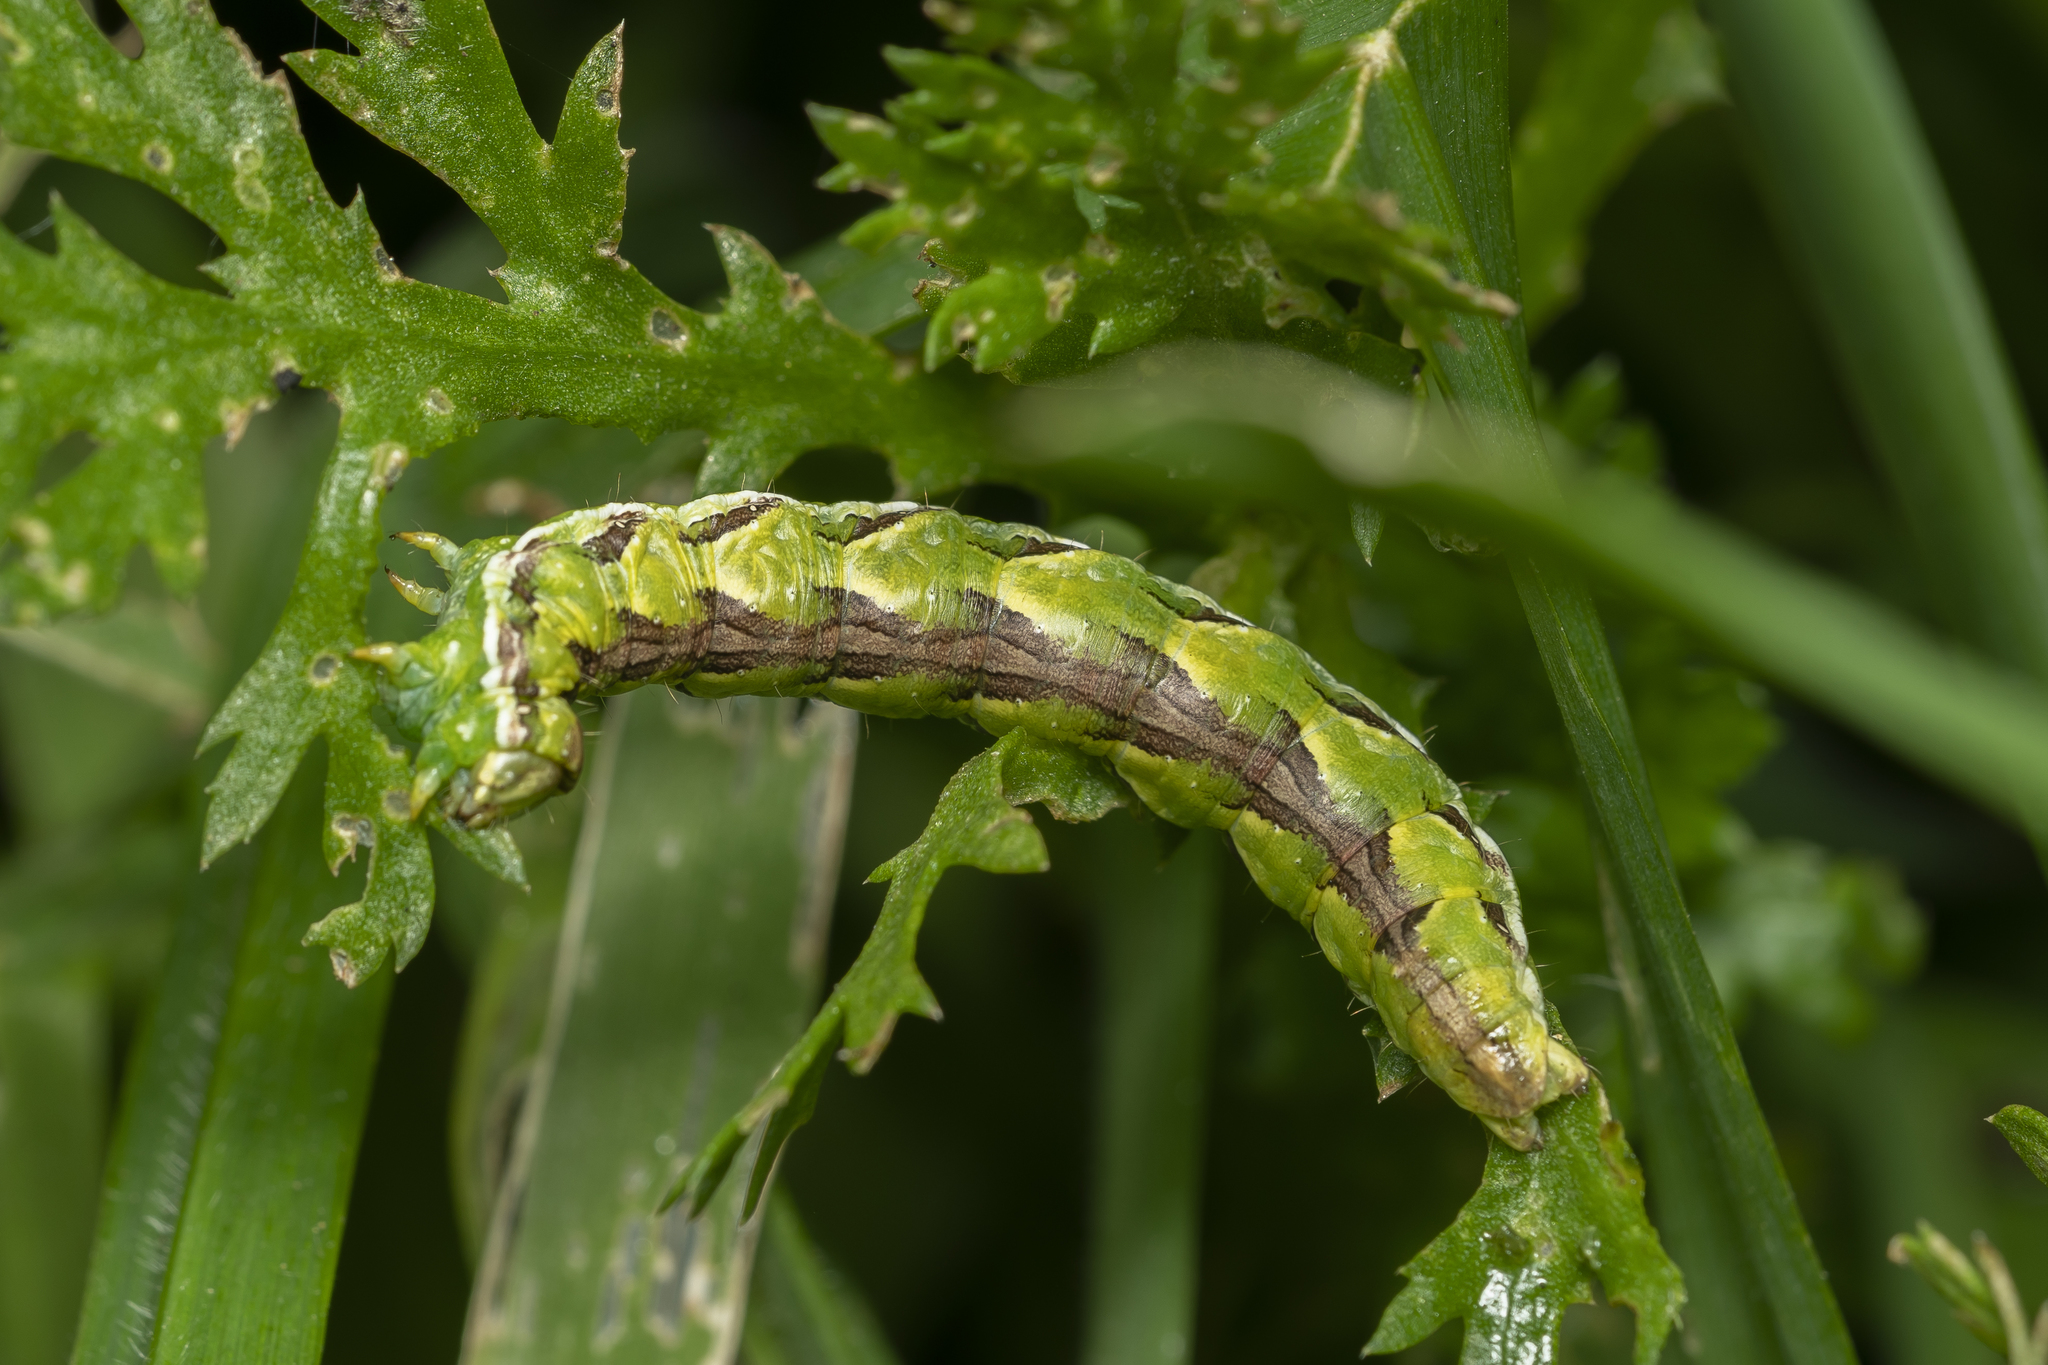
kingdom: Animalia
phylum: Arthropoda
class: Insecta
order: Lepidoptera
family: Noctuidae
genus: Cucullia
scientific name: Cucullia calendulae
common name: Marigold shark
